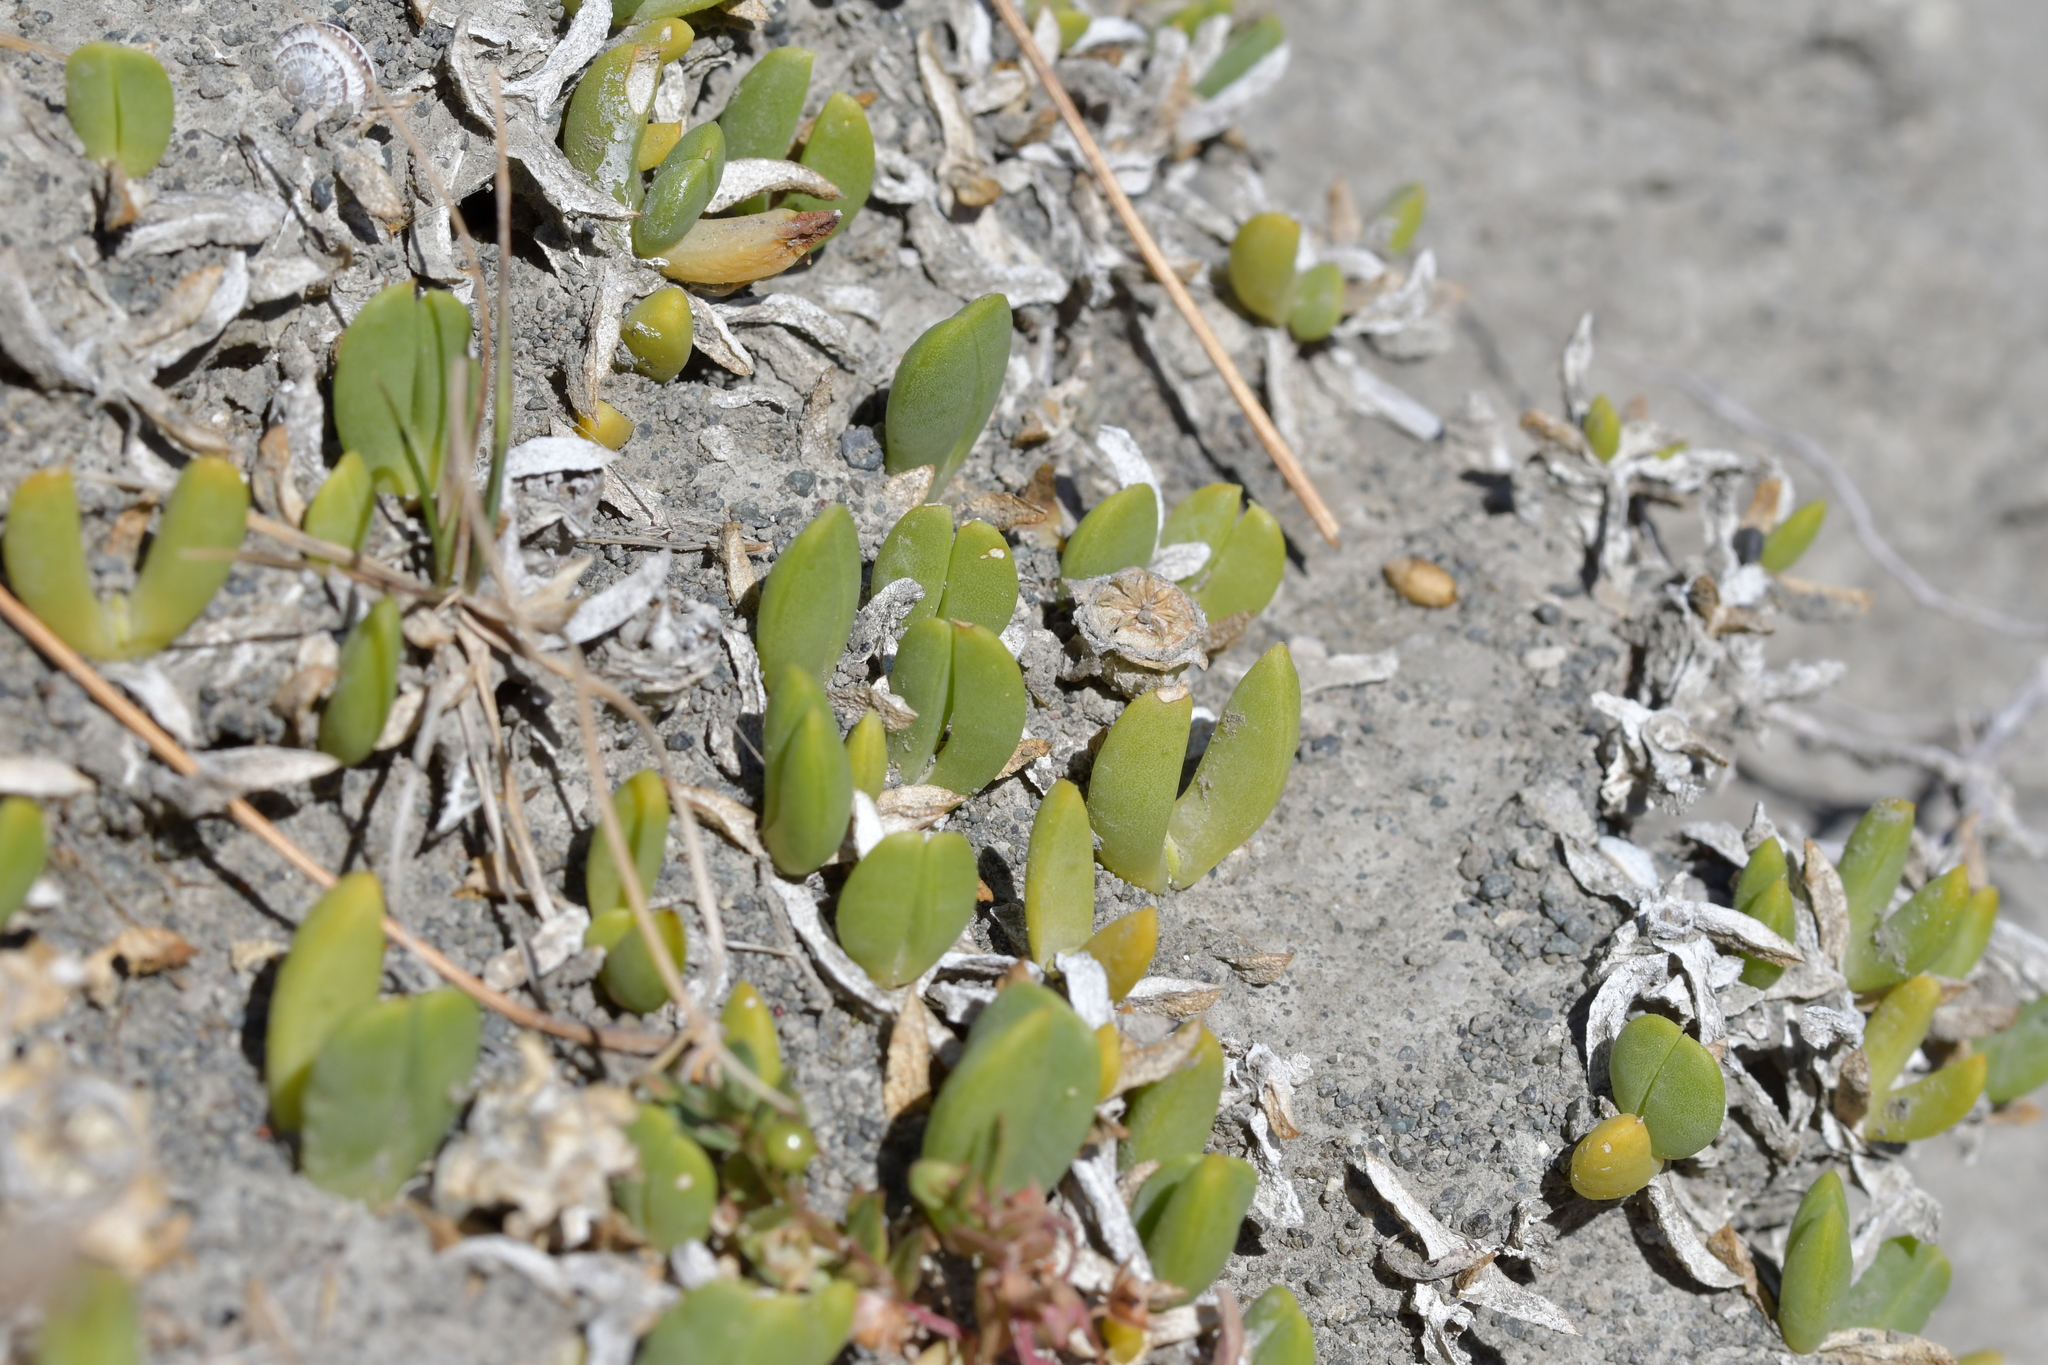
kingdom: Plantae
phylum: Tracheophyta
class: Magnoliopsida
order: Caryophyllales
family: Aizoaceae
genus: Disphyma
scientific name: Disphyma australe
